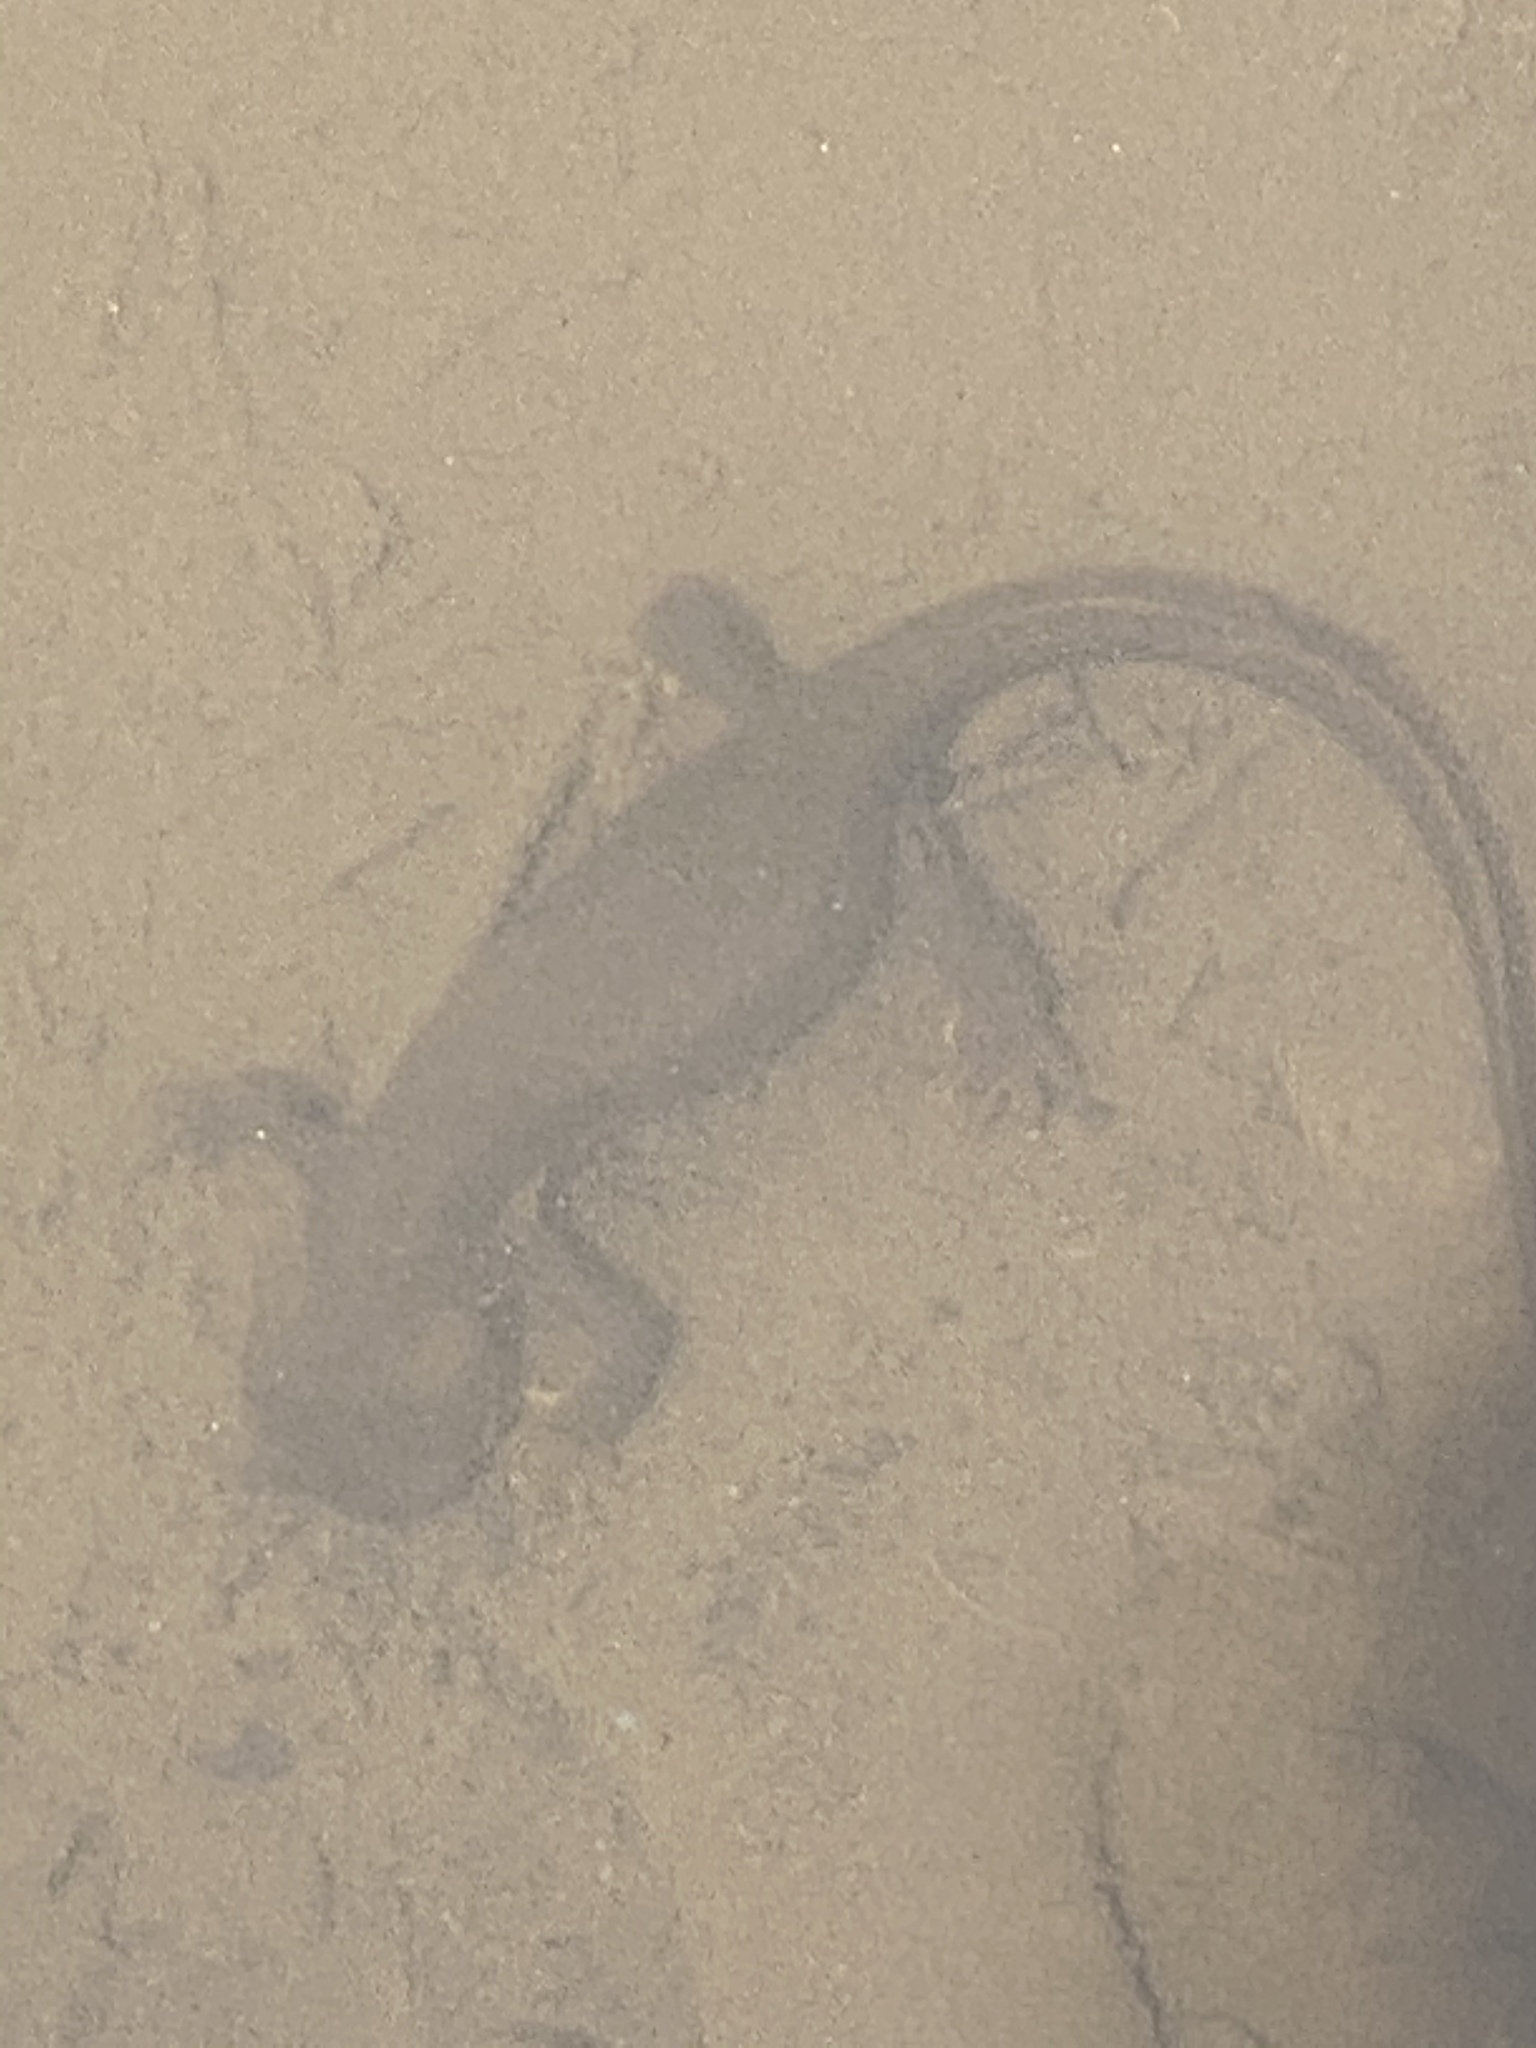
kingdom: Animalia
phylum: Chordata
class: Amphibia
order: Caudata
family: Salamandridae
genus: Taricha
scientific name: Taricha granulosa
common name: Roughskin newt
